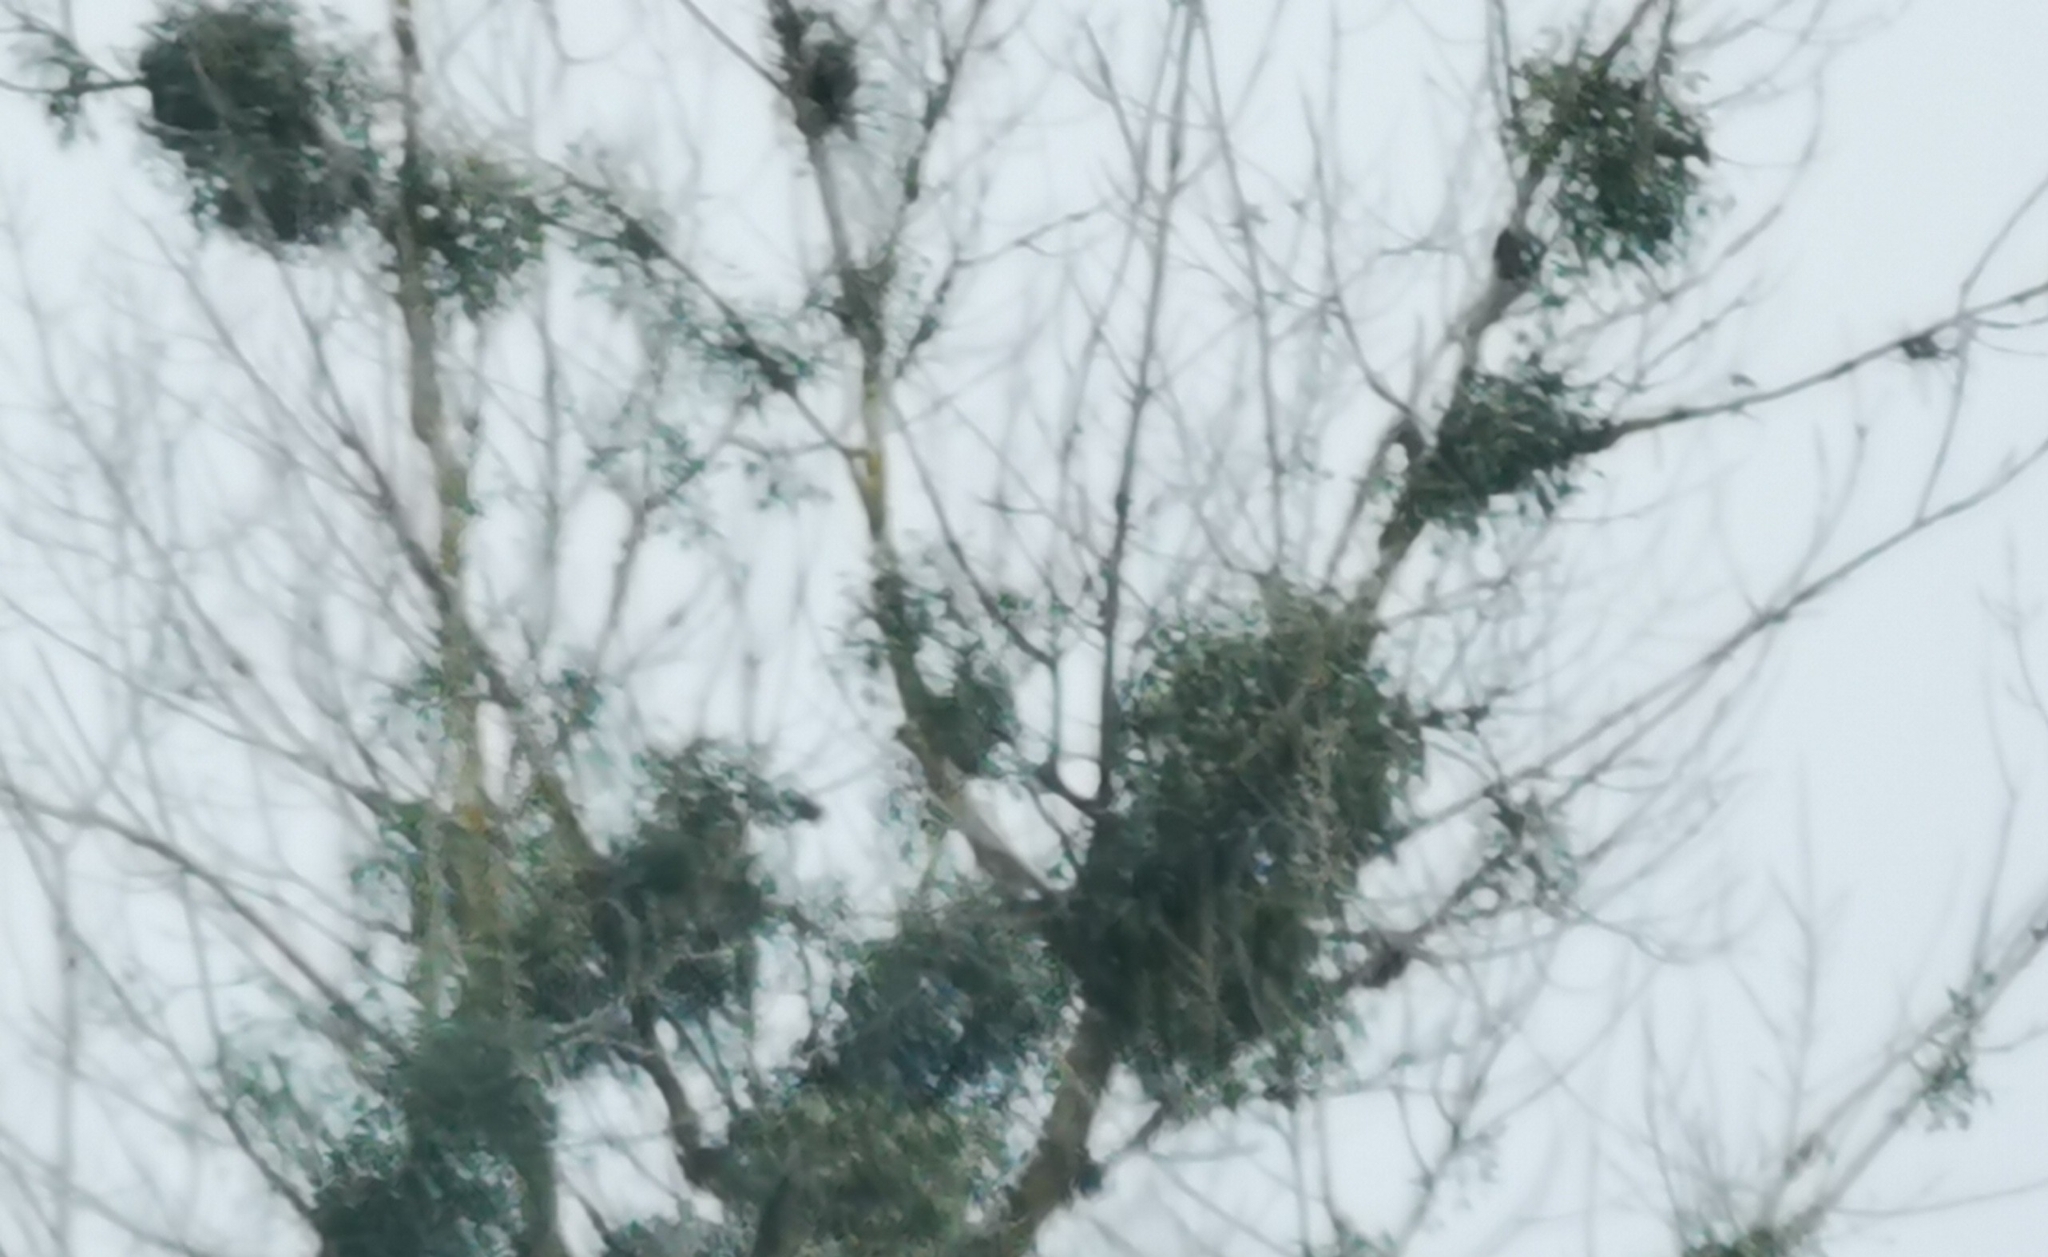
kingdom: Plantae
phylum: Tracheophyta
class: Magnoliopsida
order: Santalales
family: Viscaceae
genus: Viscum
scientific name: Viscum album
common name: Mistletoe
